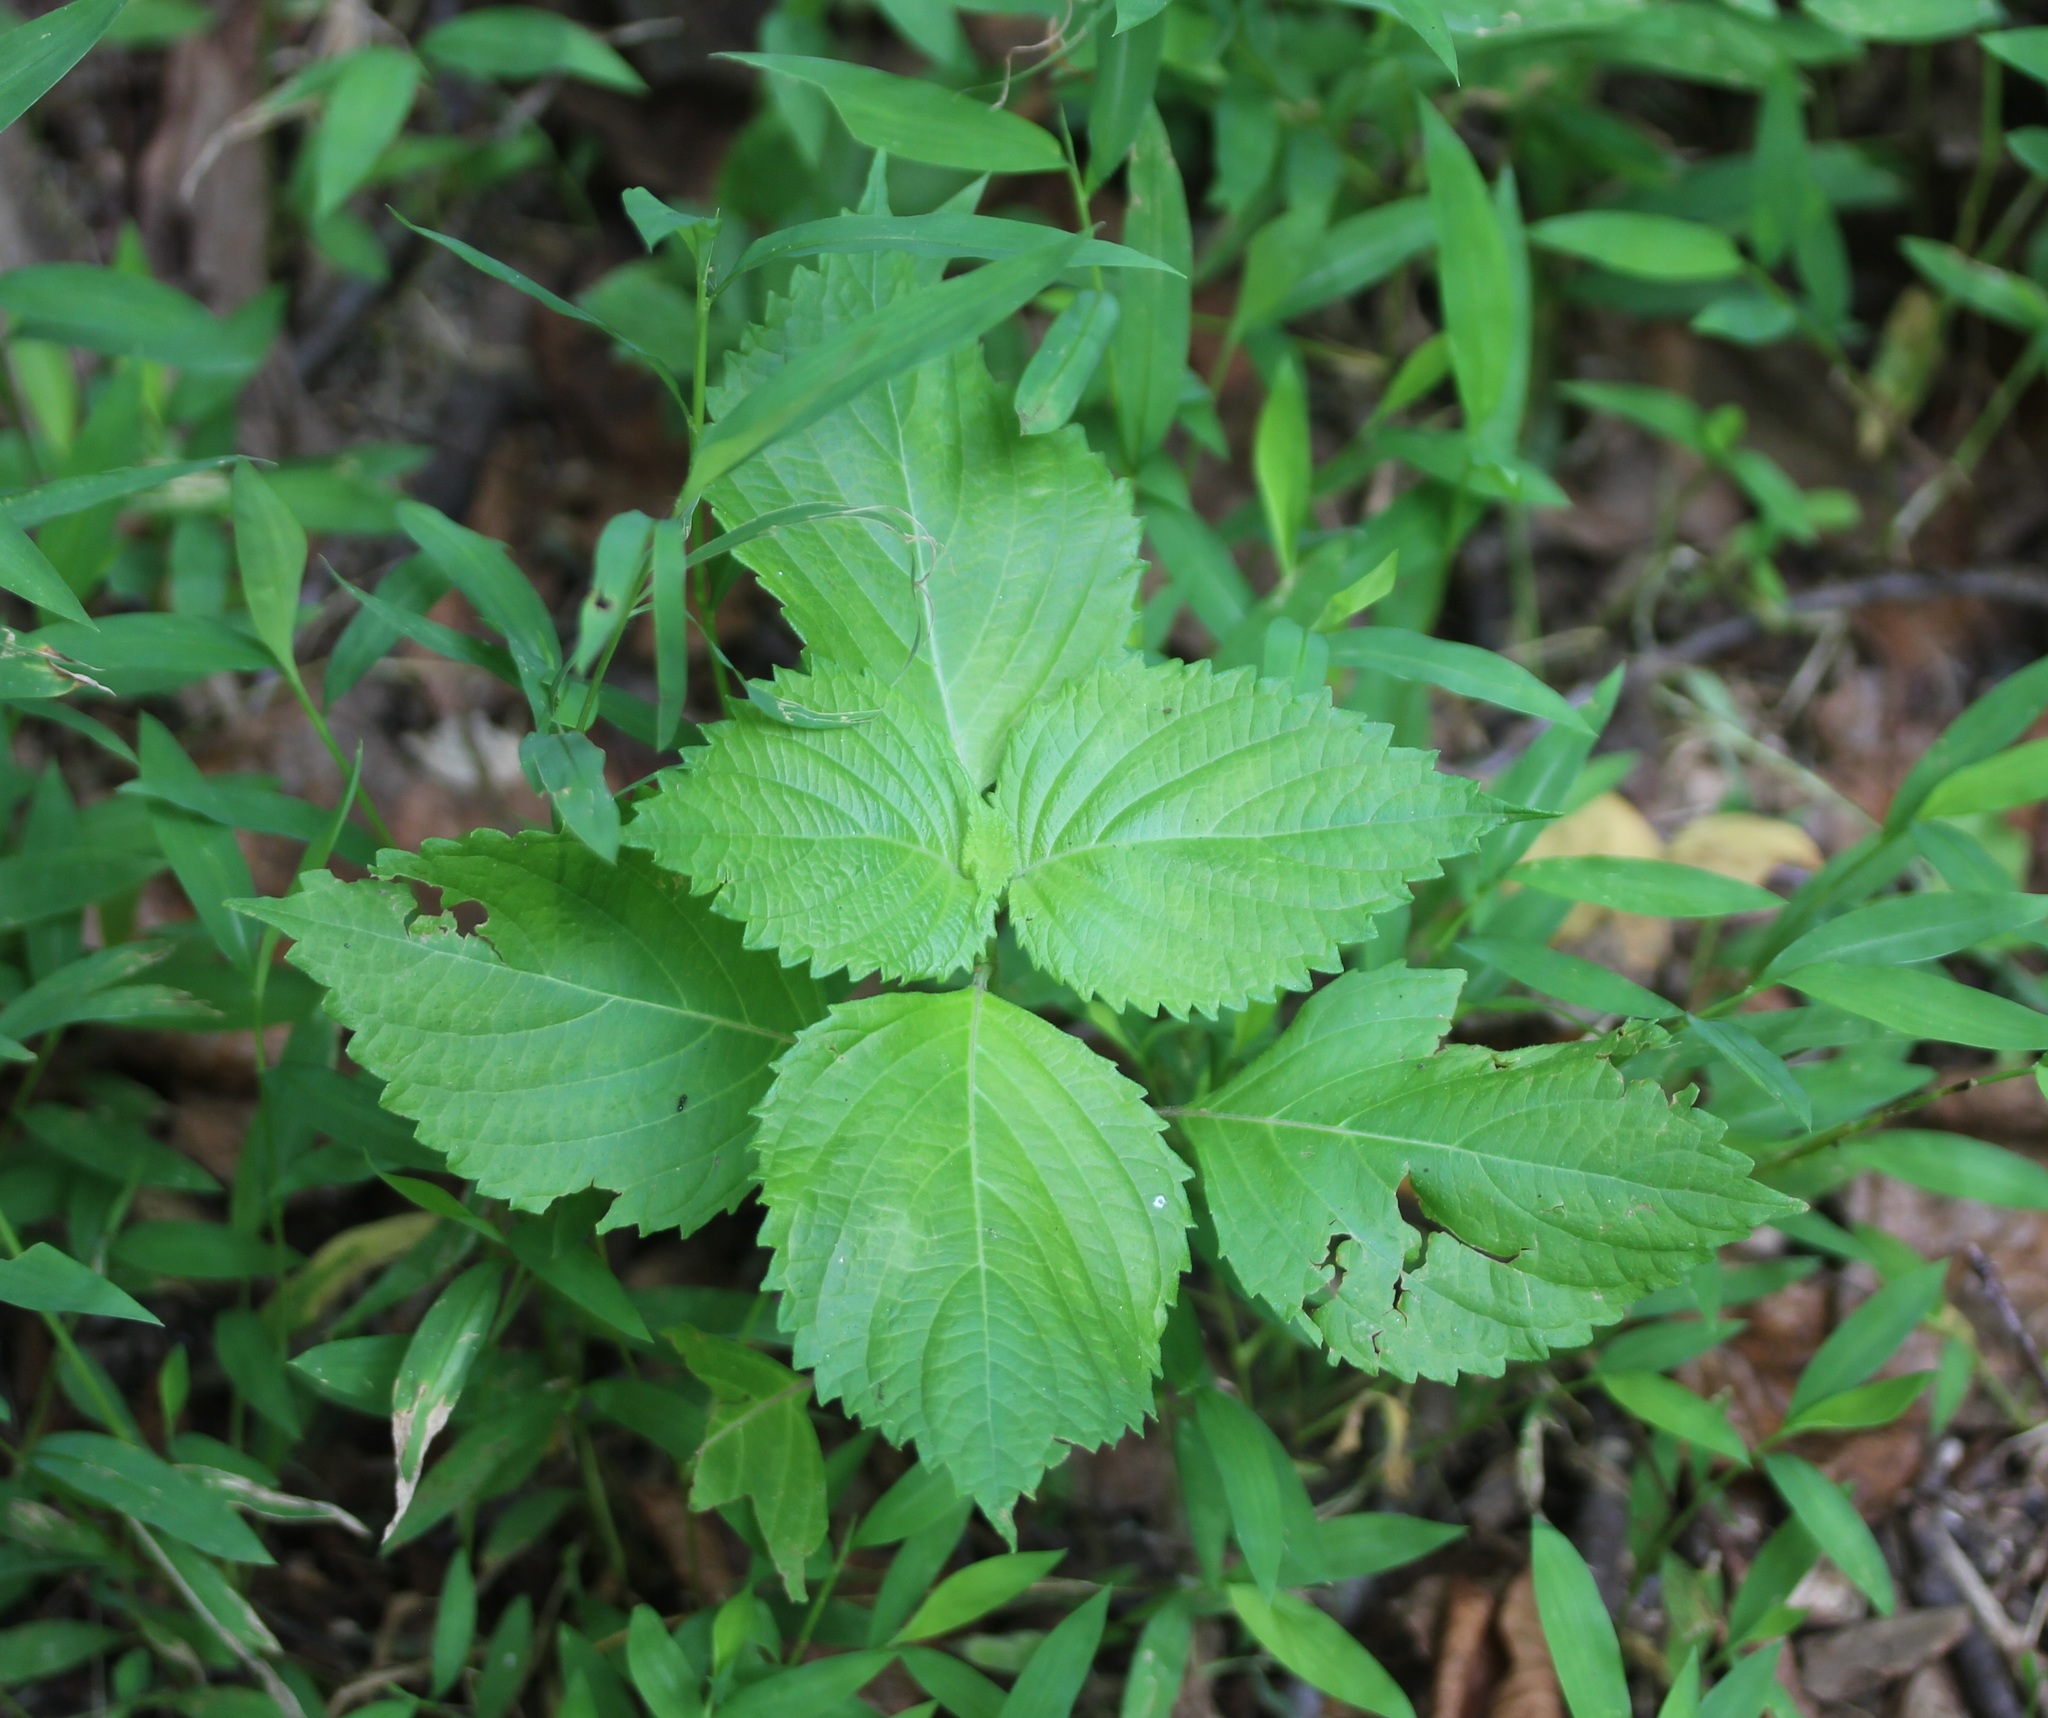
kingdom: Plantae
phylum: Tracheophyta
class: Magnoliopsida
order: Lamiales
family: Lamiaceae
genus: Perilla
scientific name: Perilla frutescens
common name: Perilla
